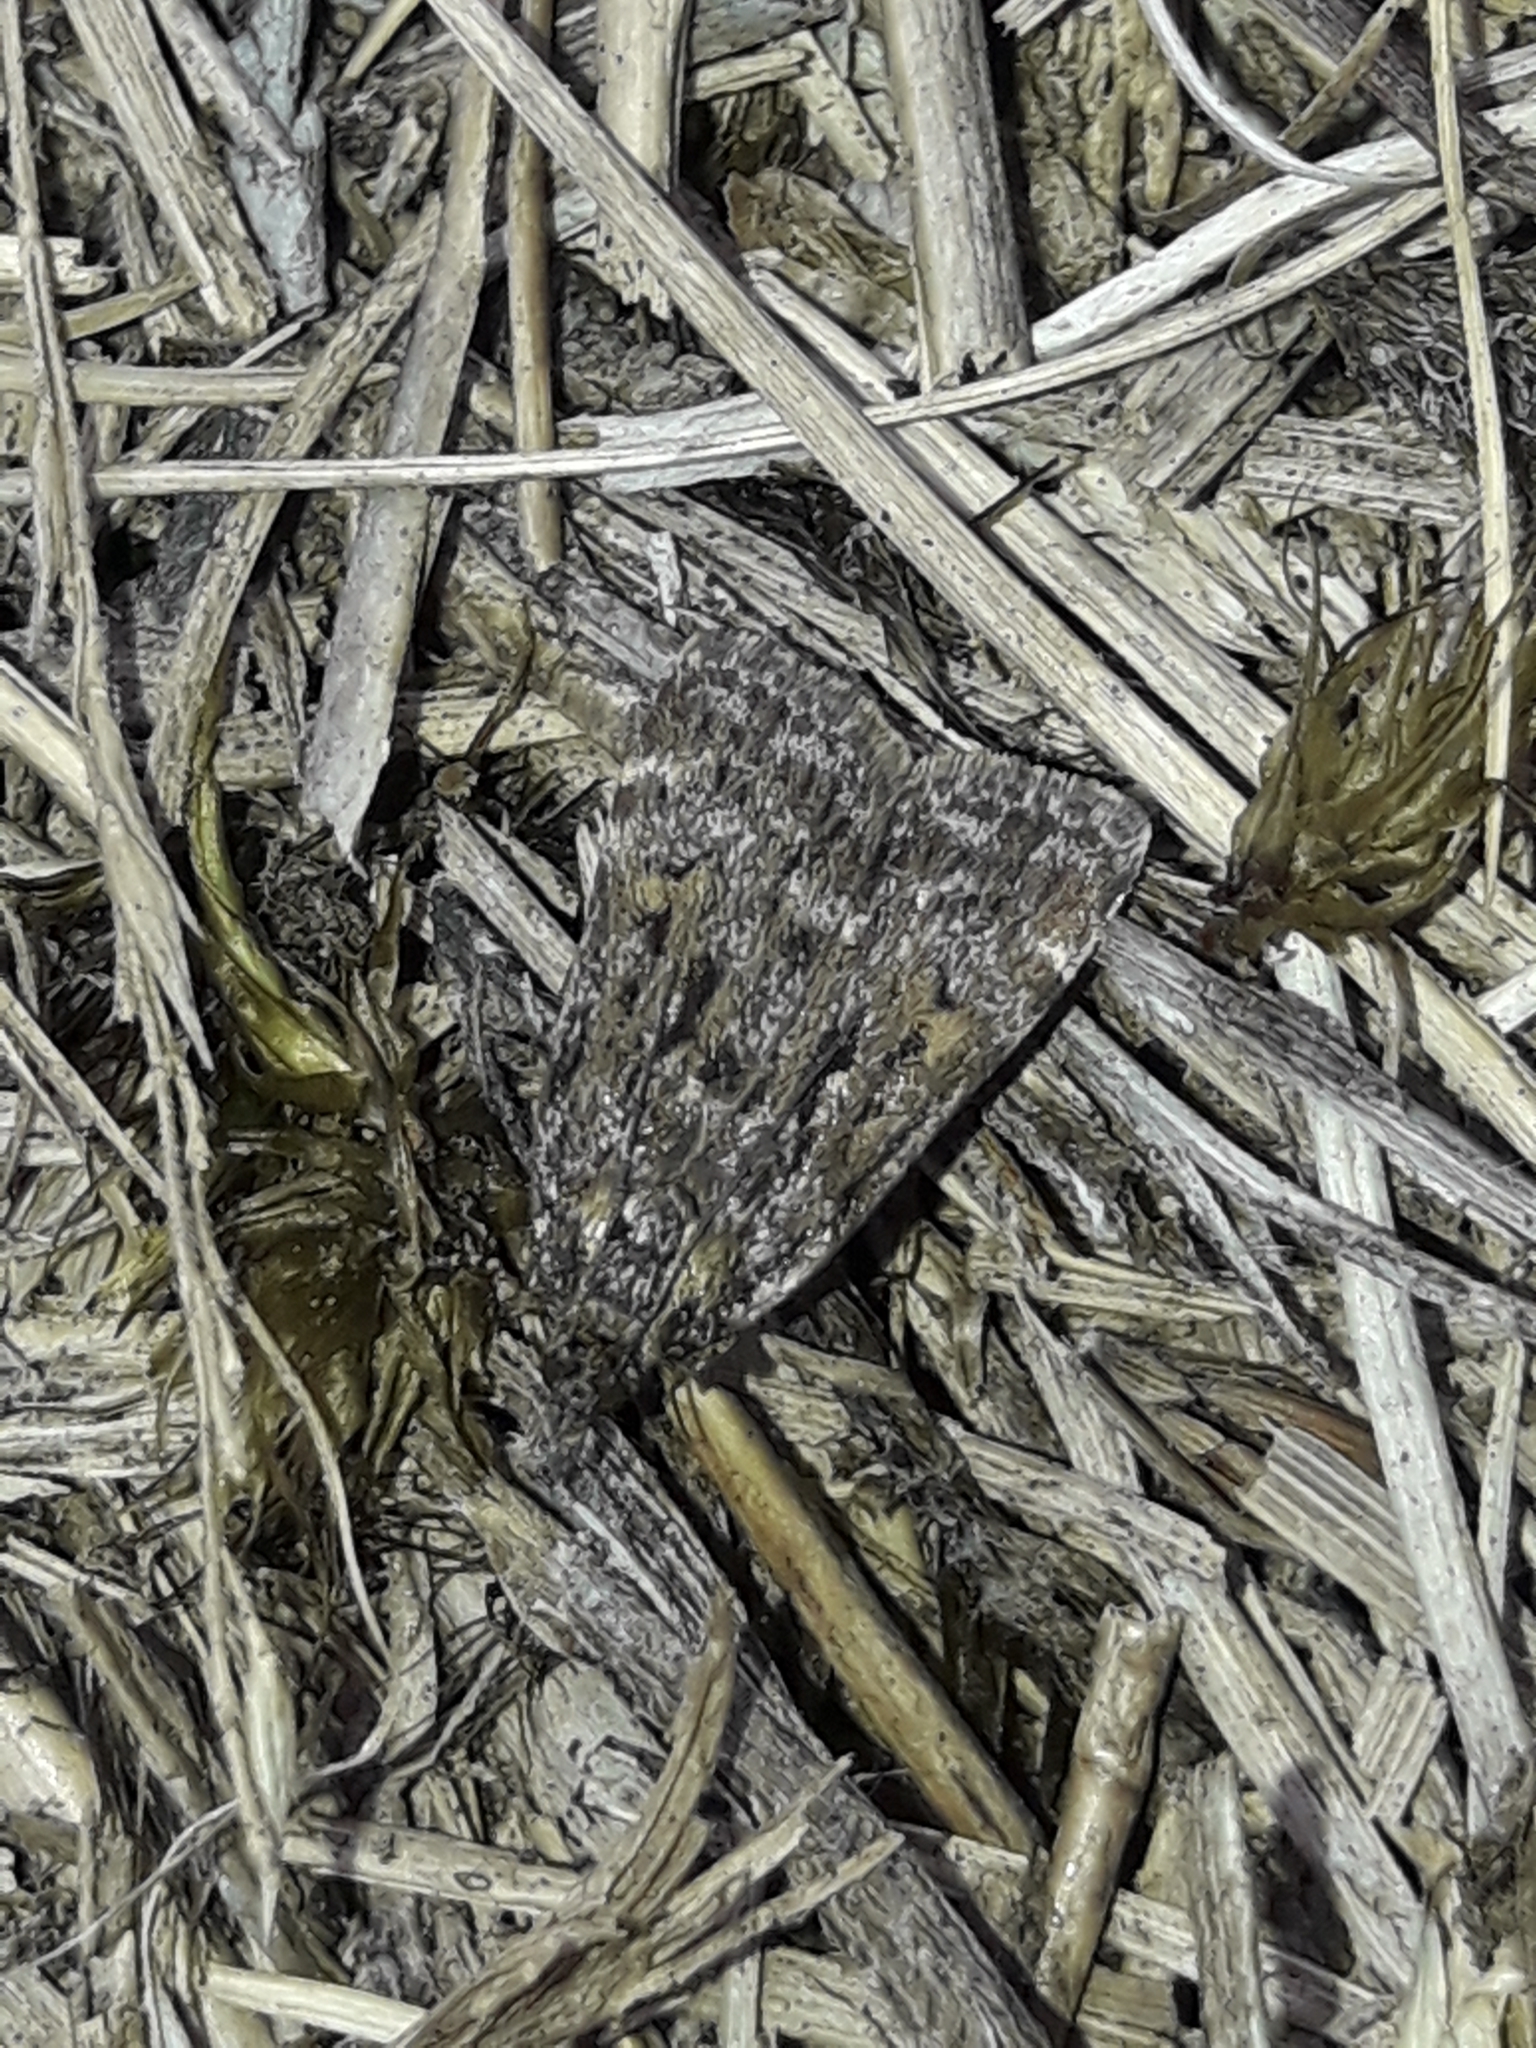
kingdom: Animalia
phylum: Arthropoda
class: Insecta
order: Lepidoptera
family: Crambidae
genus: Scoparia
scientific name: Scoparia lychnophanes
